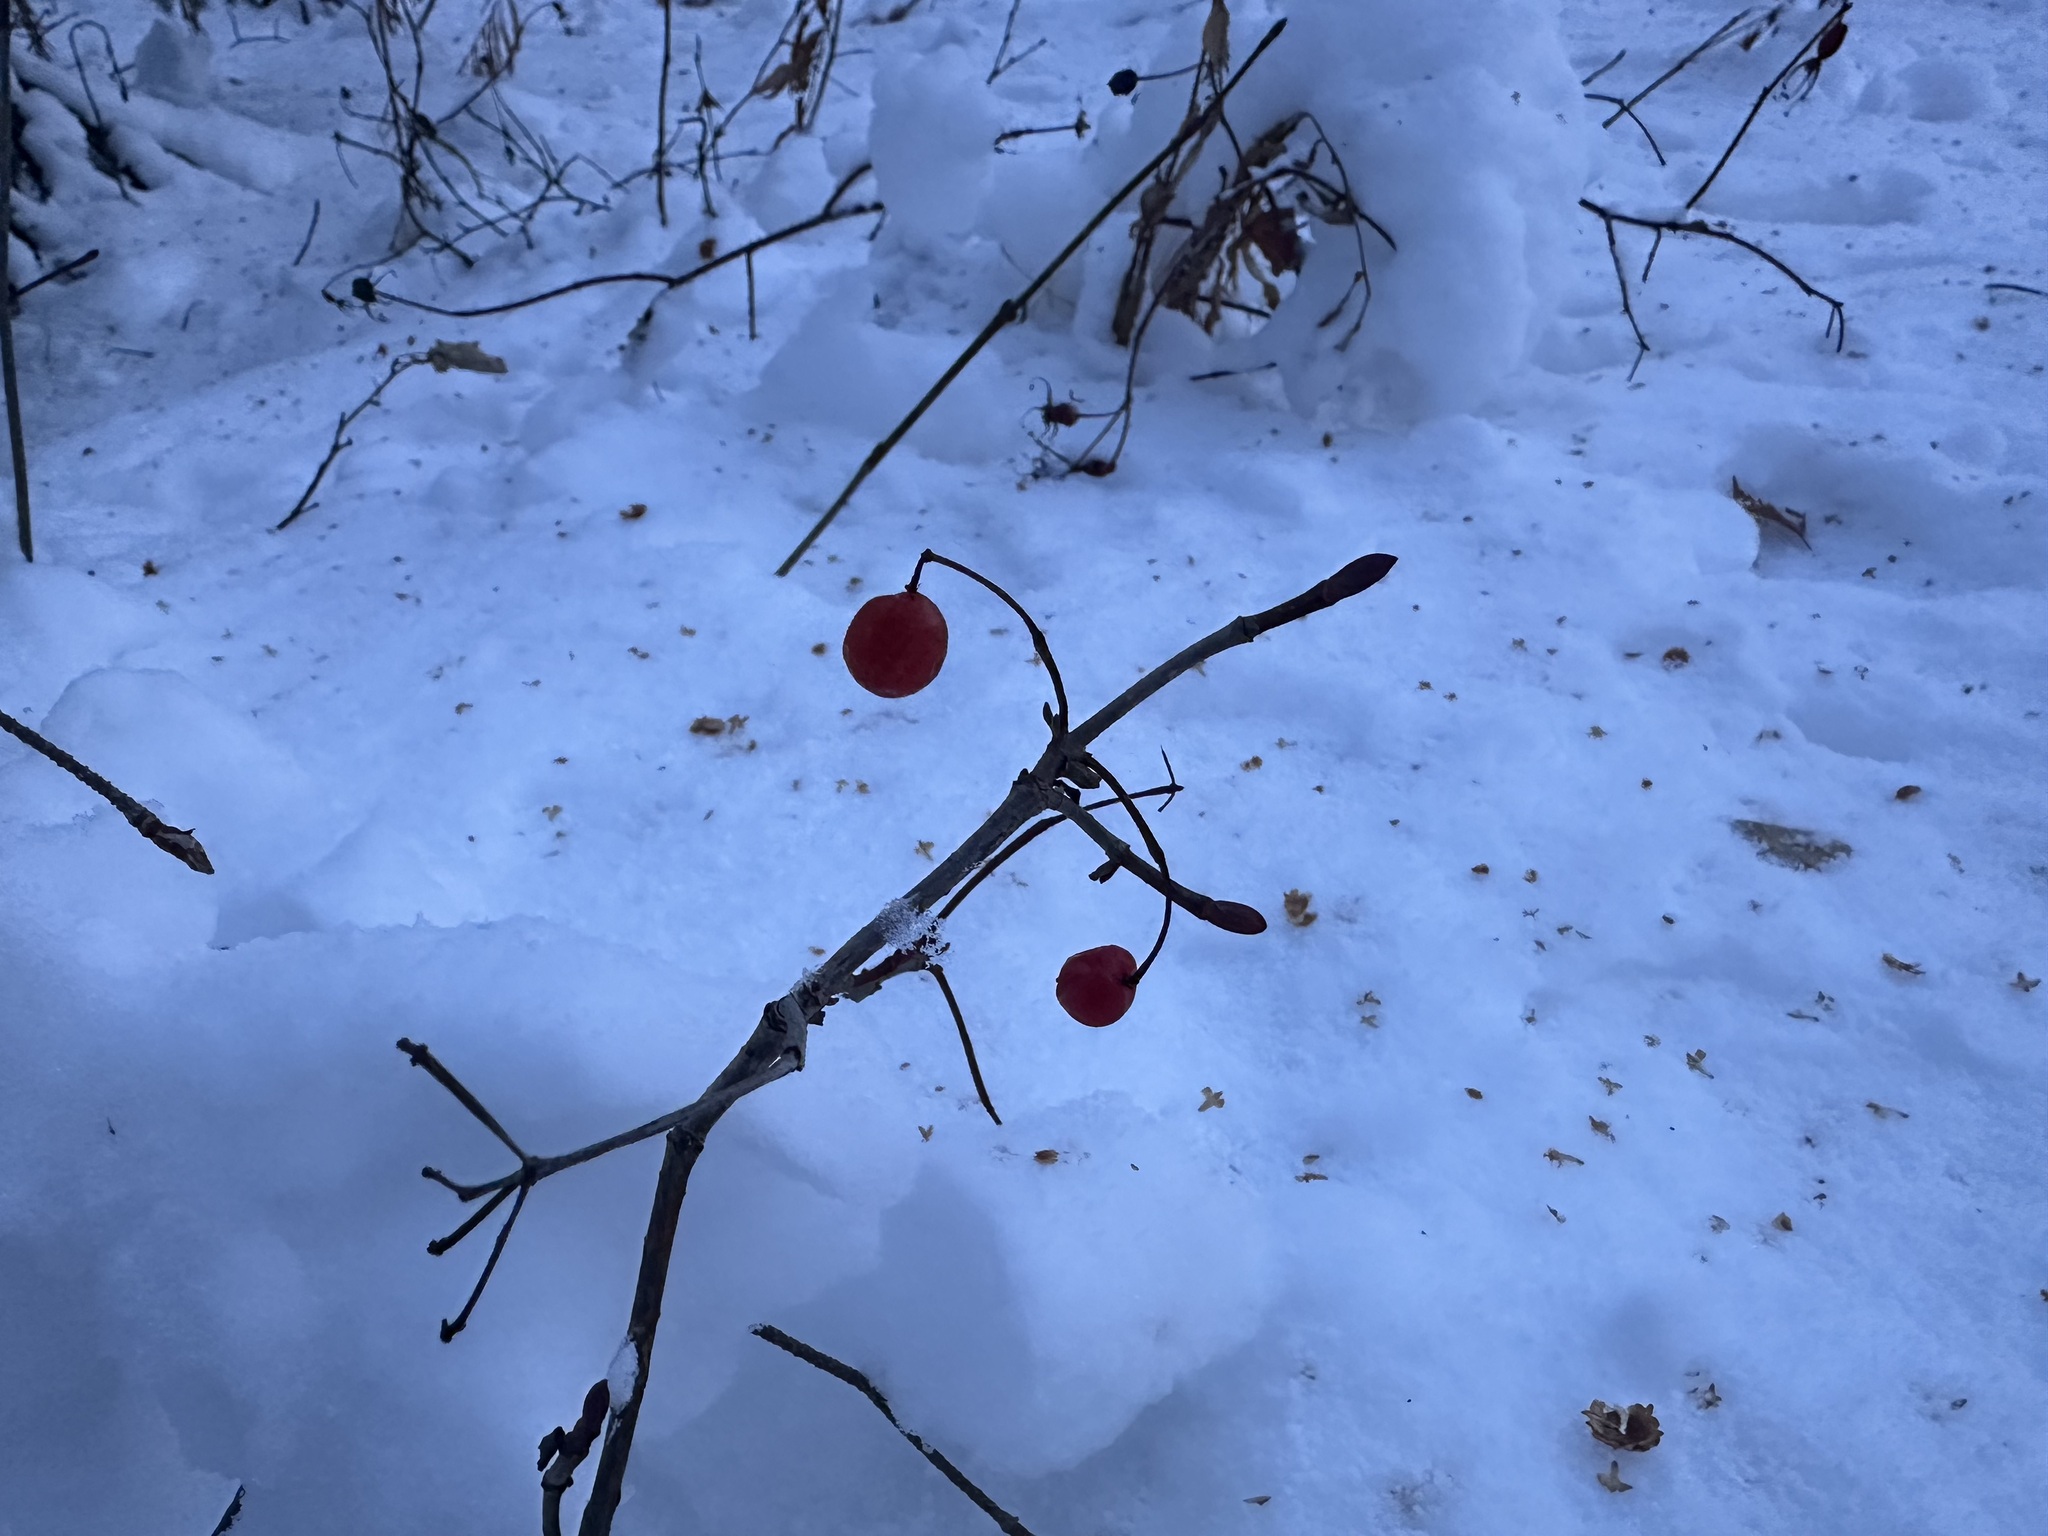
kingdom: Plantae
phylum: Tracheophyta
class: Magnoliopsida
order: Dipsacales
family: Viburnaceae
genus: Viburnum
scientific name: Viburnum edule
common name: Mooseberry
